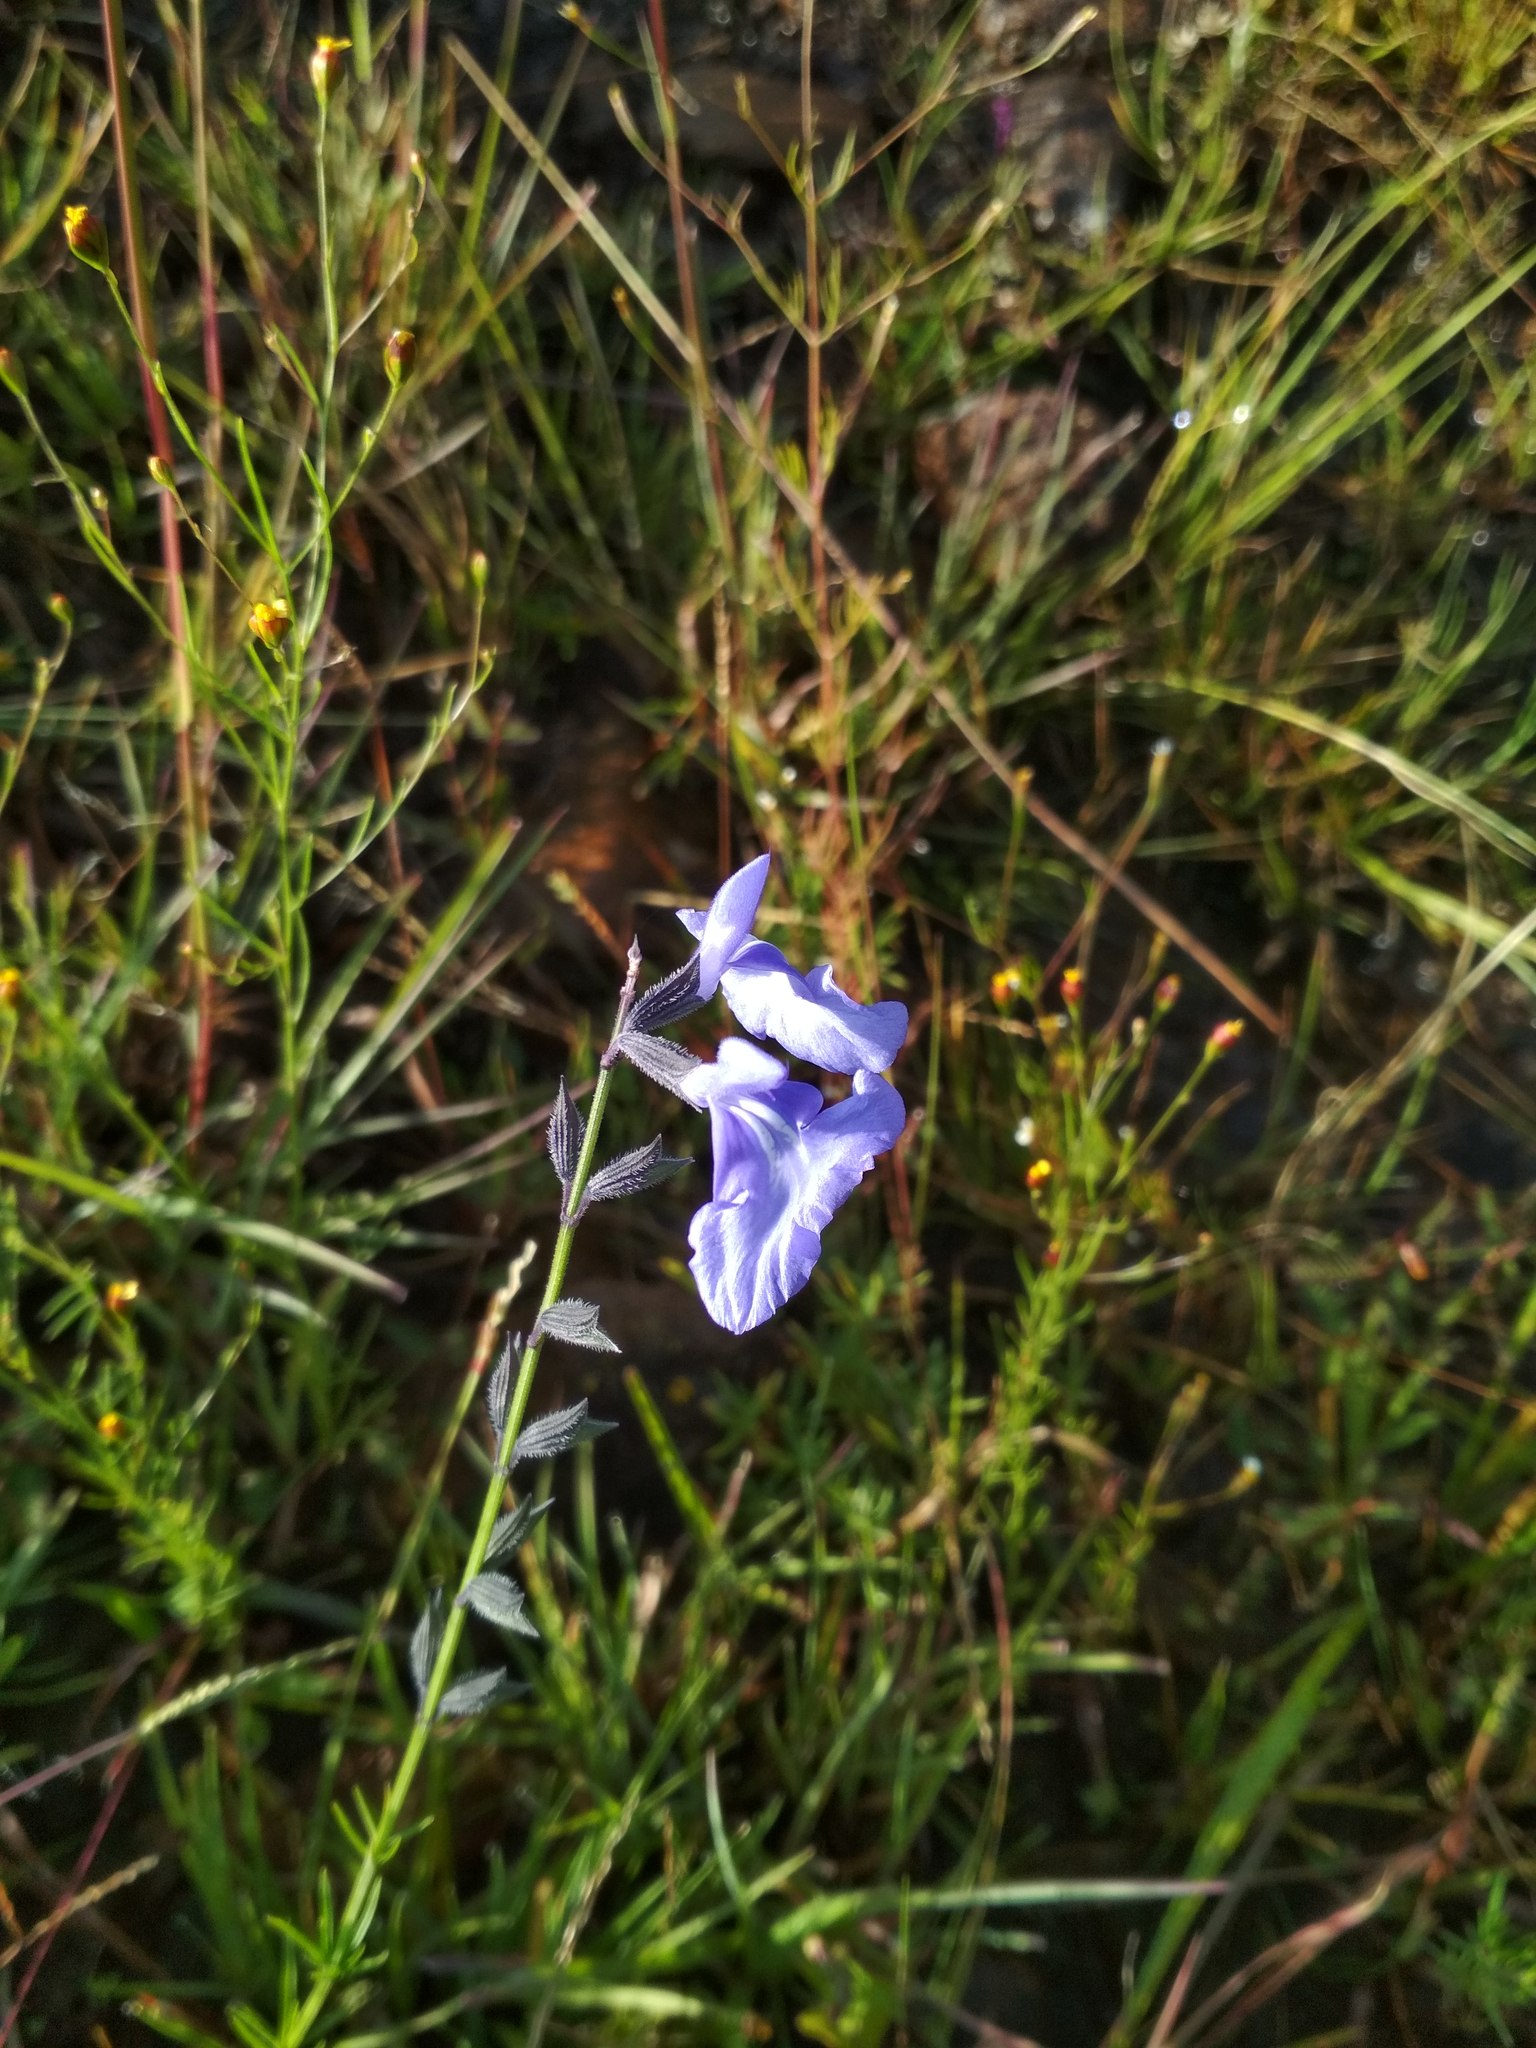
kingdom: Plantae
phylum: Tracheophyta
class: Magnoliopsida
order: Lamiales
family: Lamiaceae
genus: Salvia
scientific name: Salvia reptans
